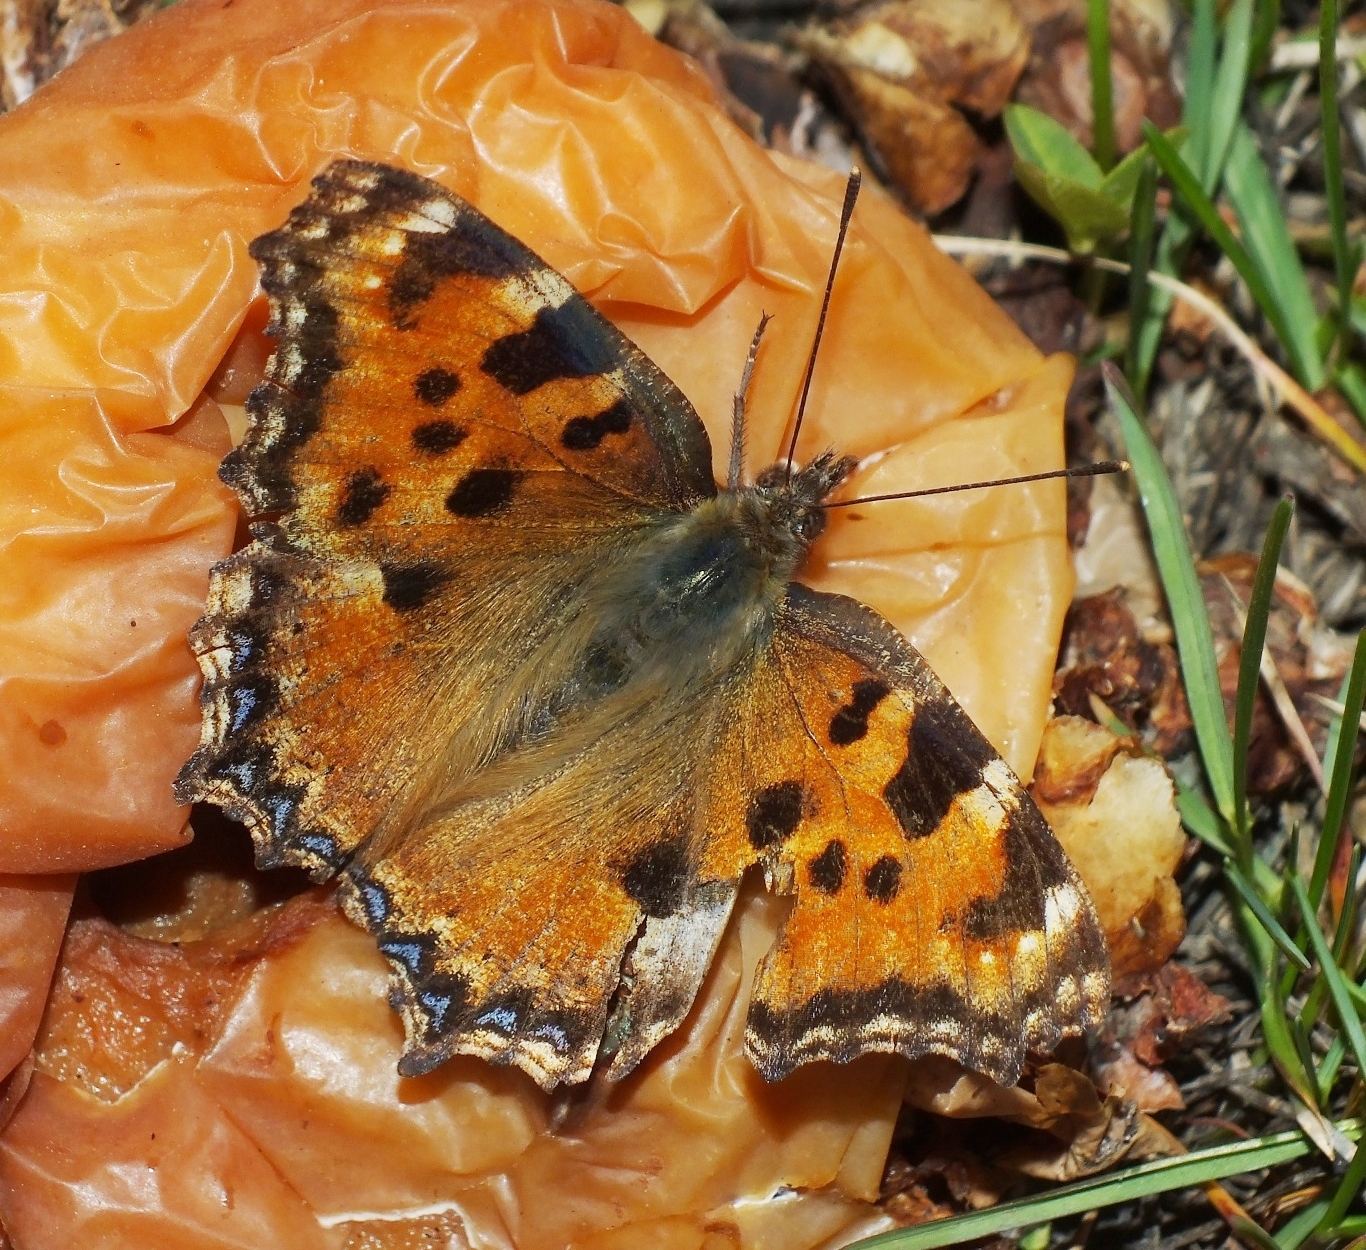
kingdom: Animalia
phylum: Arthropoda
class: Insecta
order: Lepidoptera
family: Nymphalidae
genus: Nymphalis
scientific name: Nymphalis polychloros
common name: Large tortoiseshell
